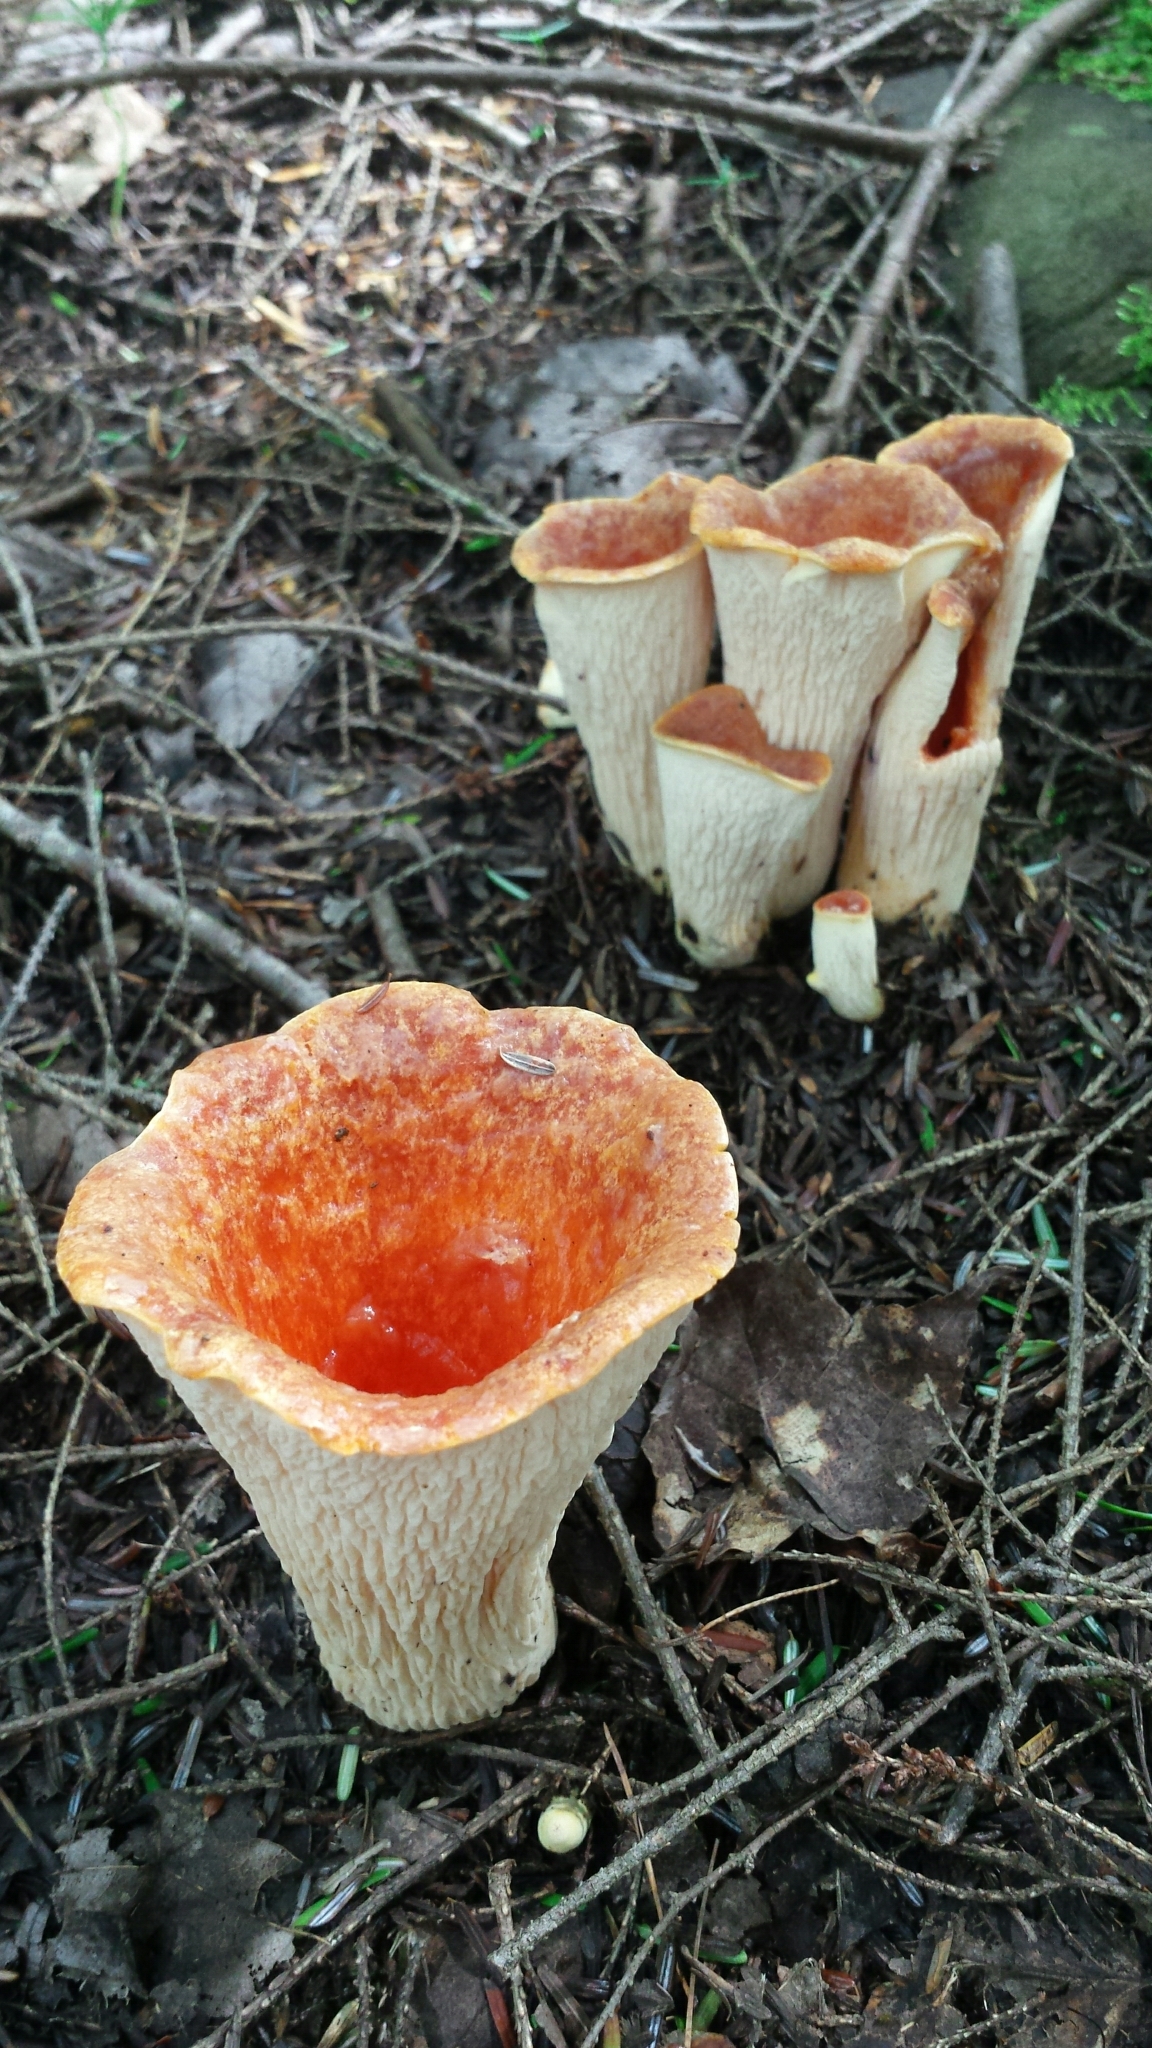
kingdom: Fungi
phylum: Basidiomycota
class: Agaricomycetes
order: Gomphales
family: Gomphaceae
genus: Turbinellus
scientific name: Turbinellus floccosus
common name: Scaly chanterelle
